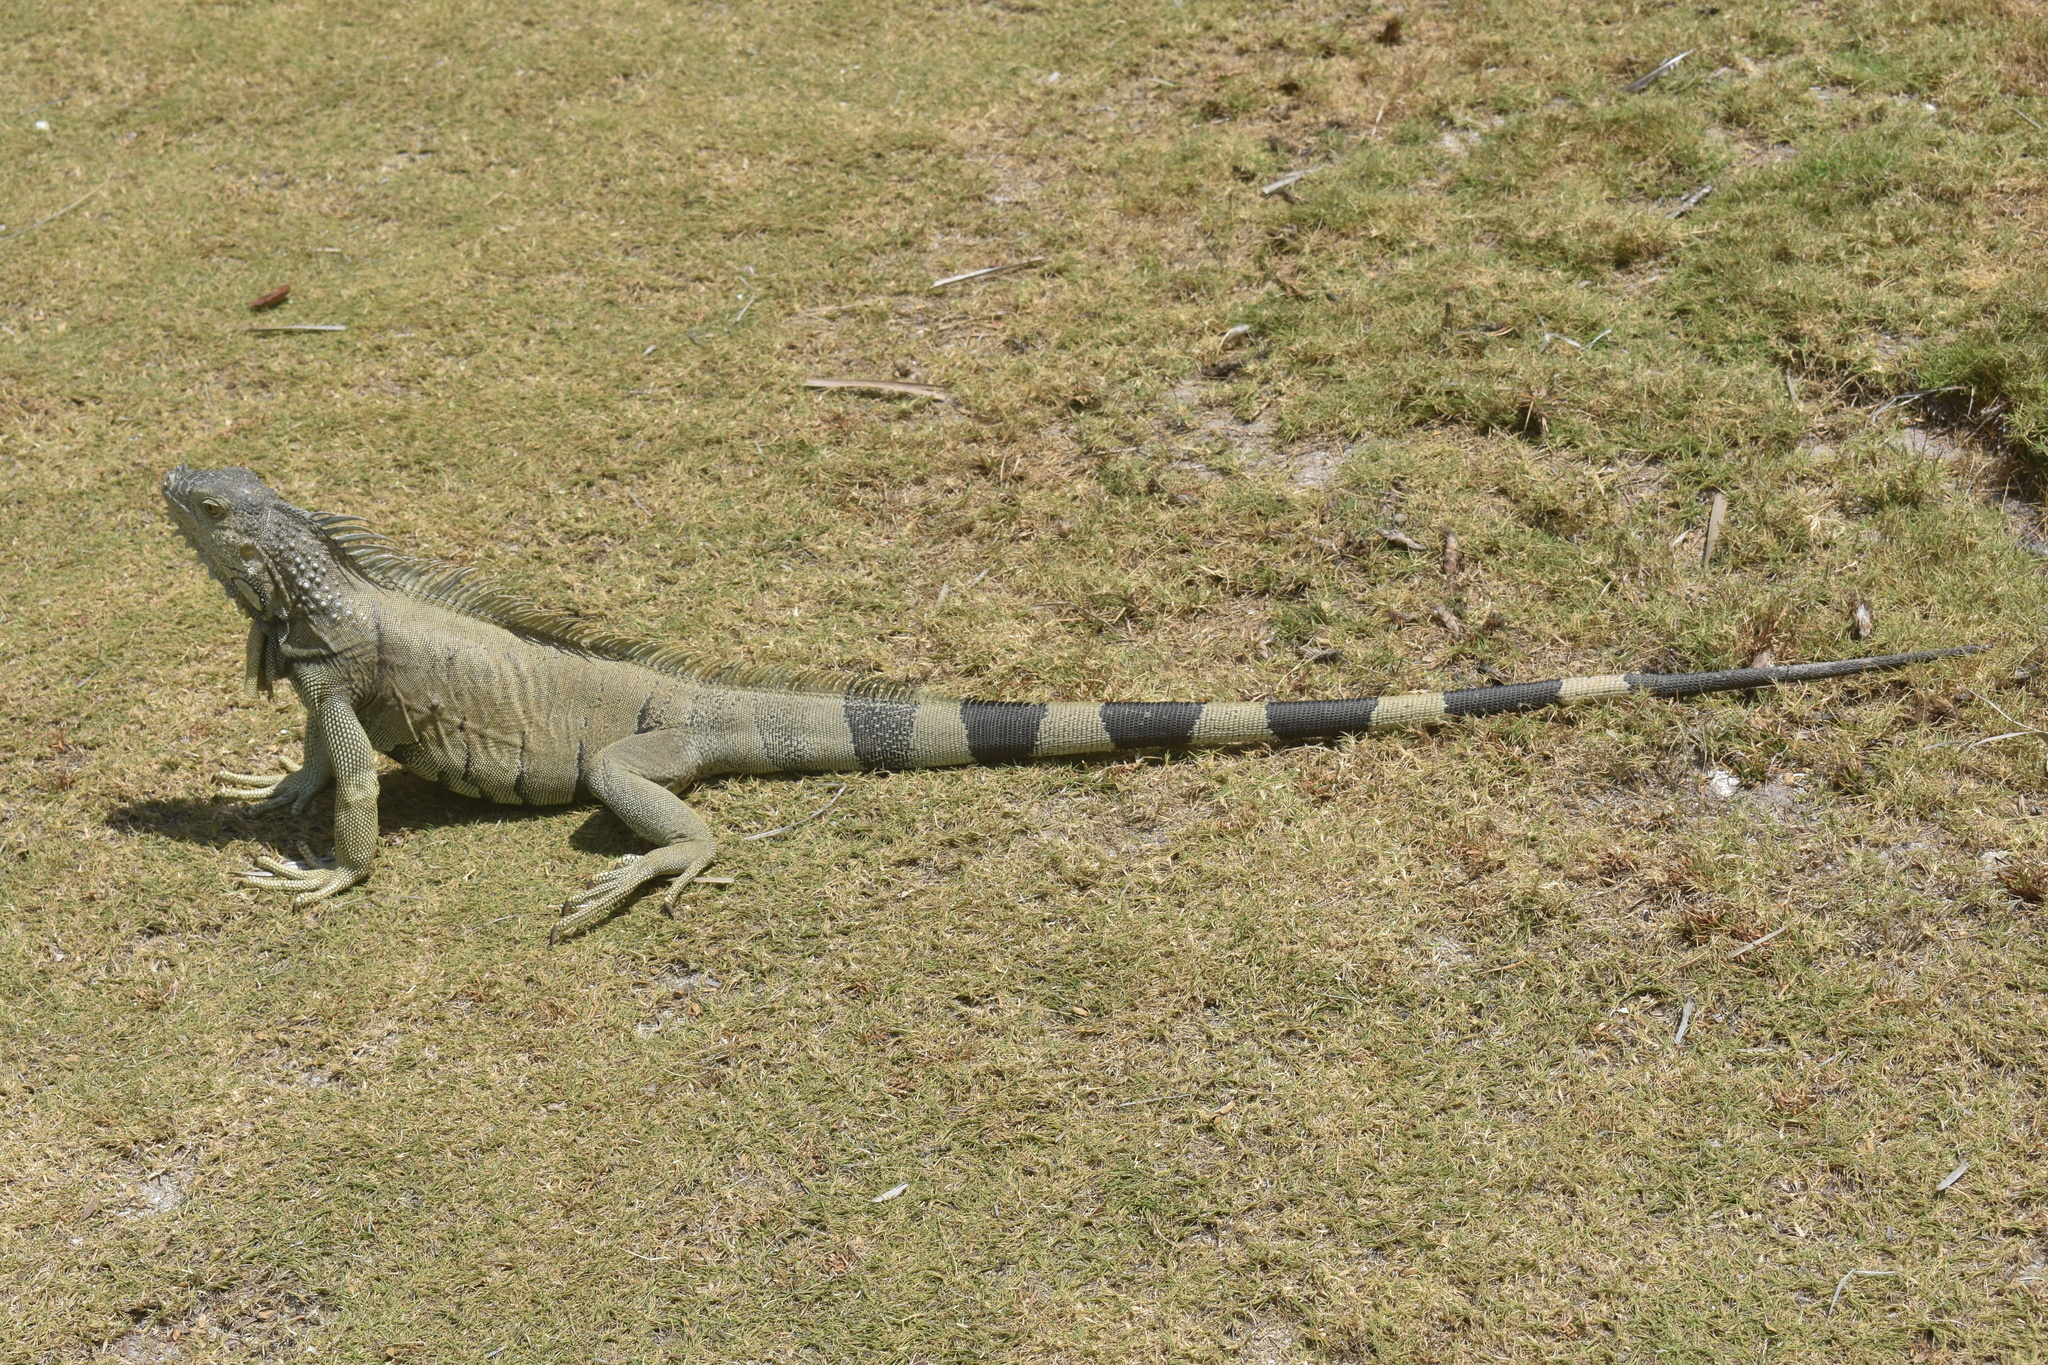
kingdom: Animalia
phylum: Chordata
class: Squamata
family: Iguanidae
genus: Iguana
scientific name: Iguana iguana
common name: Green iguana
